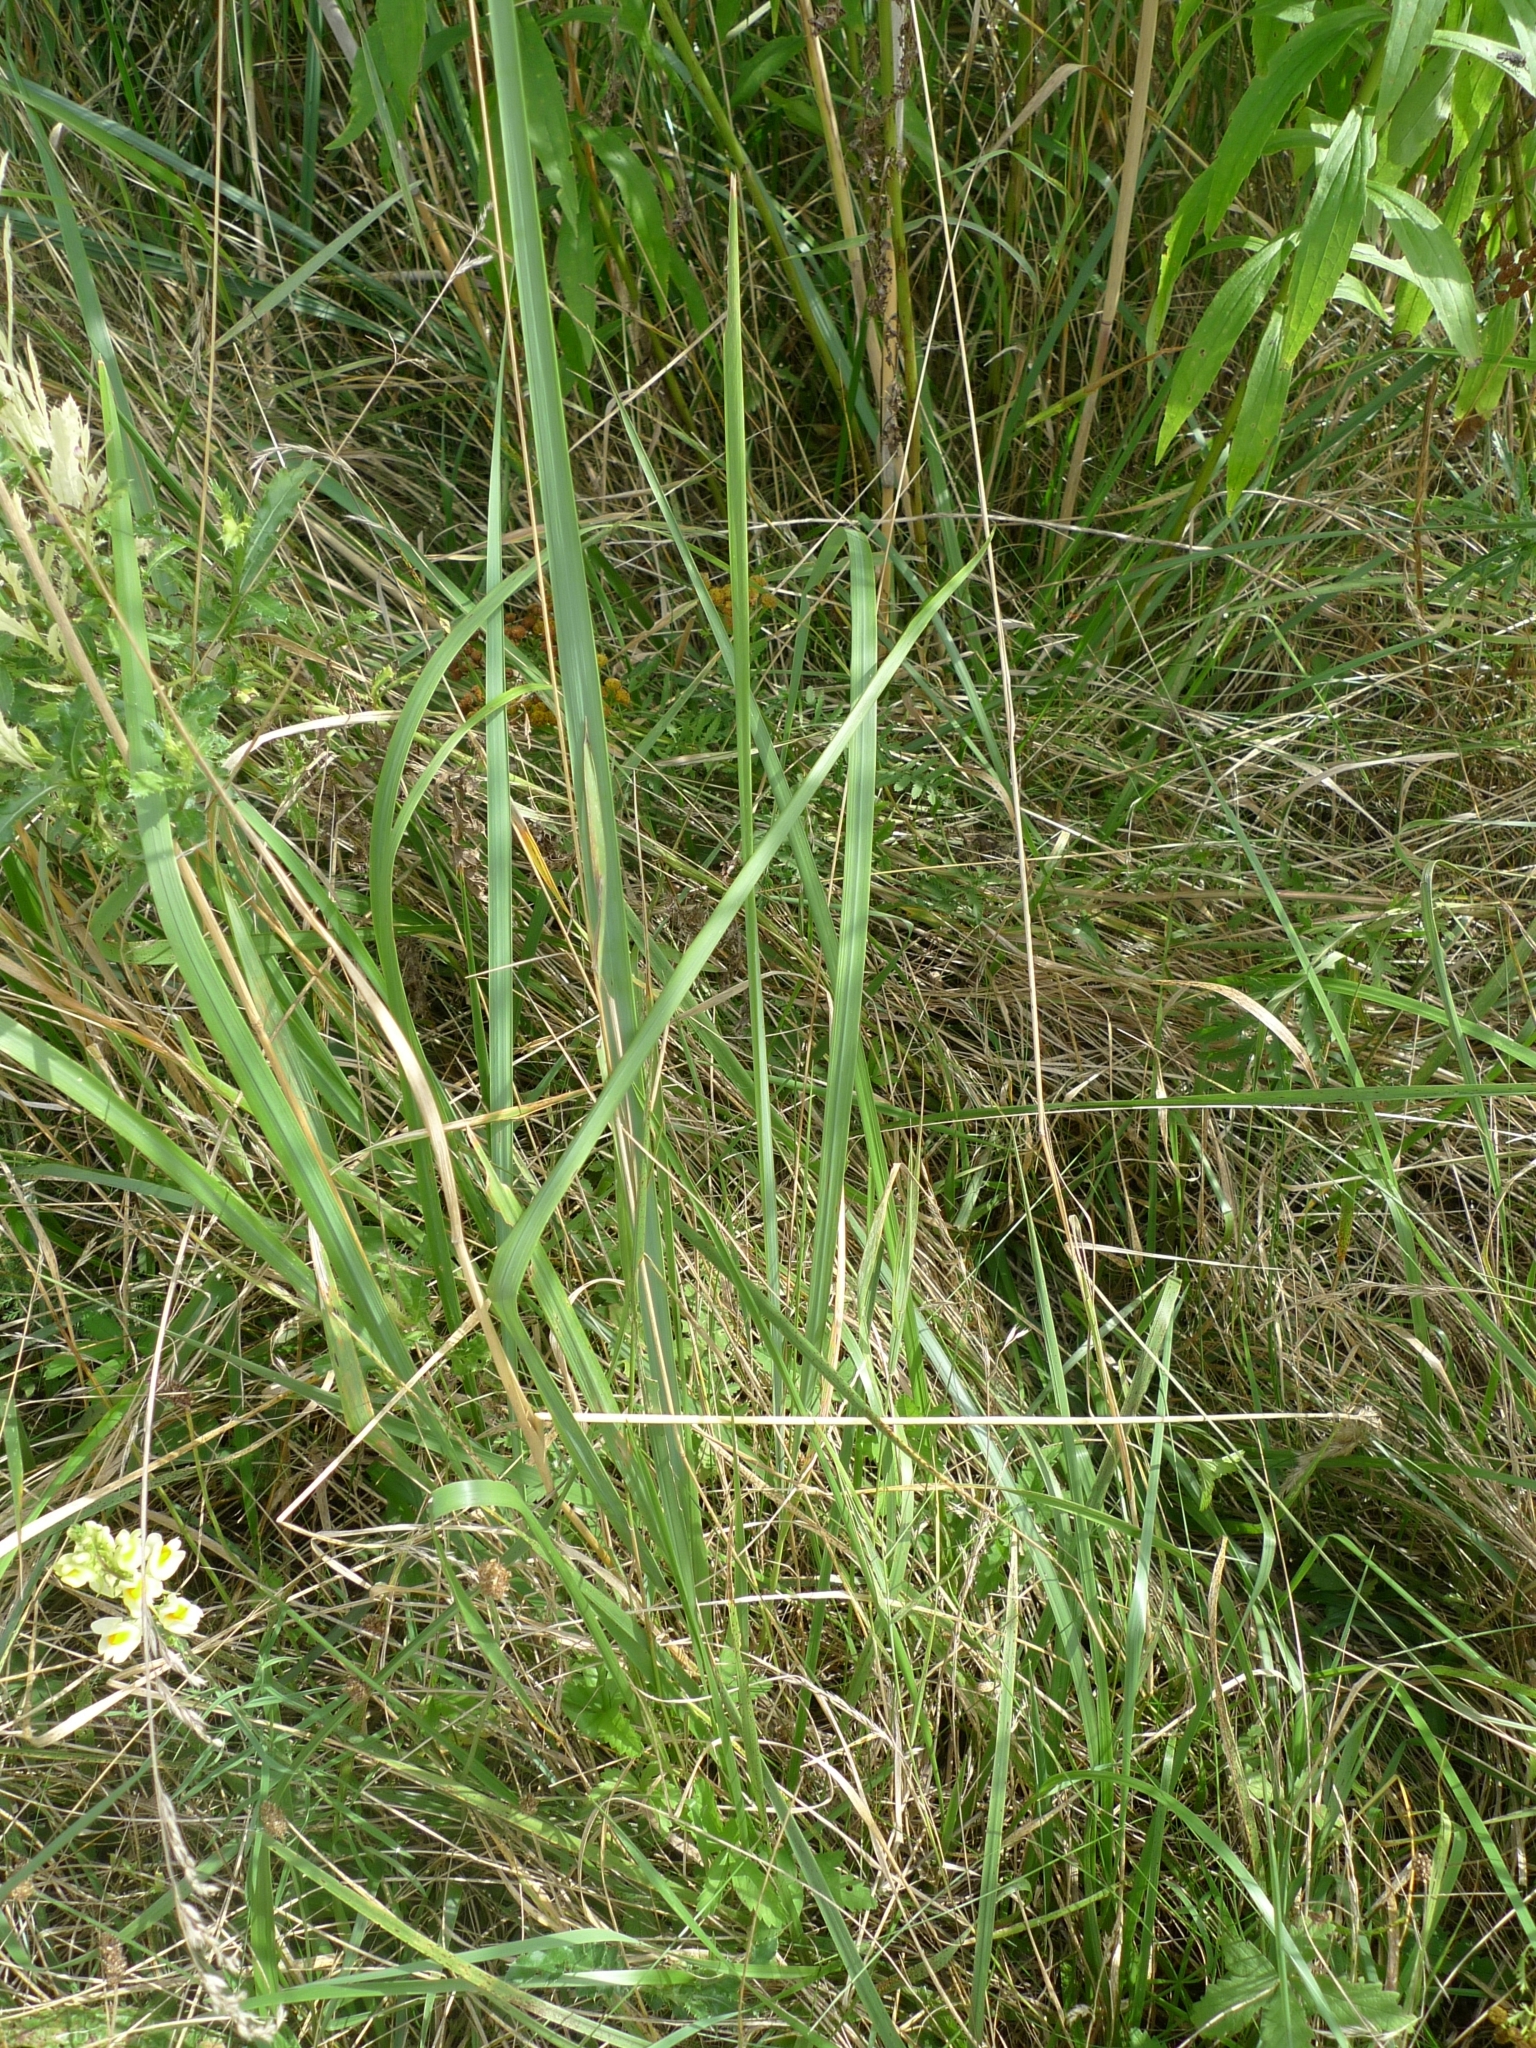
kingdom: Plantae
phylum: Tracheophyta
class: Liliopsida
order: Poales
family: Poaceae
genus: Calamagrostis
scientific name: Calamagrostis epigejos
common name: Wood small-reed
